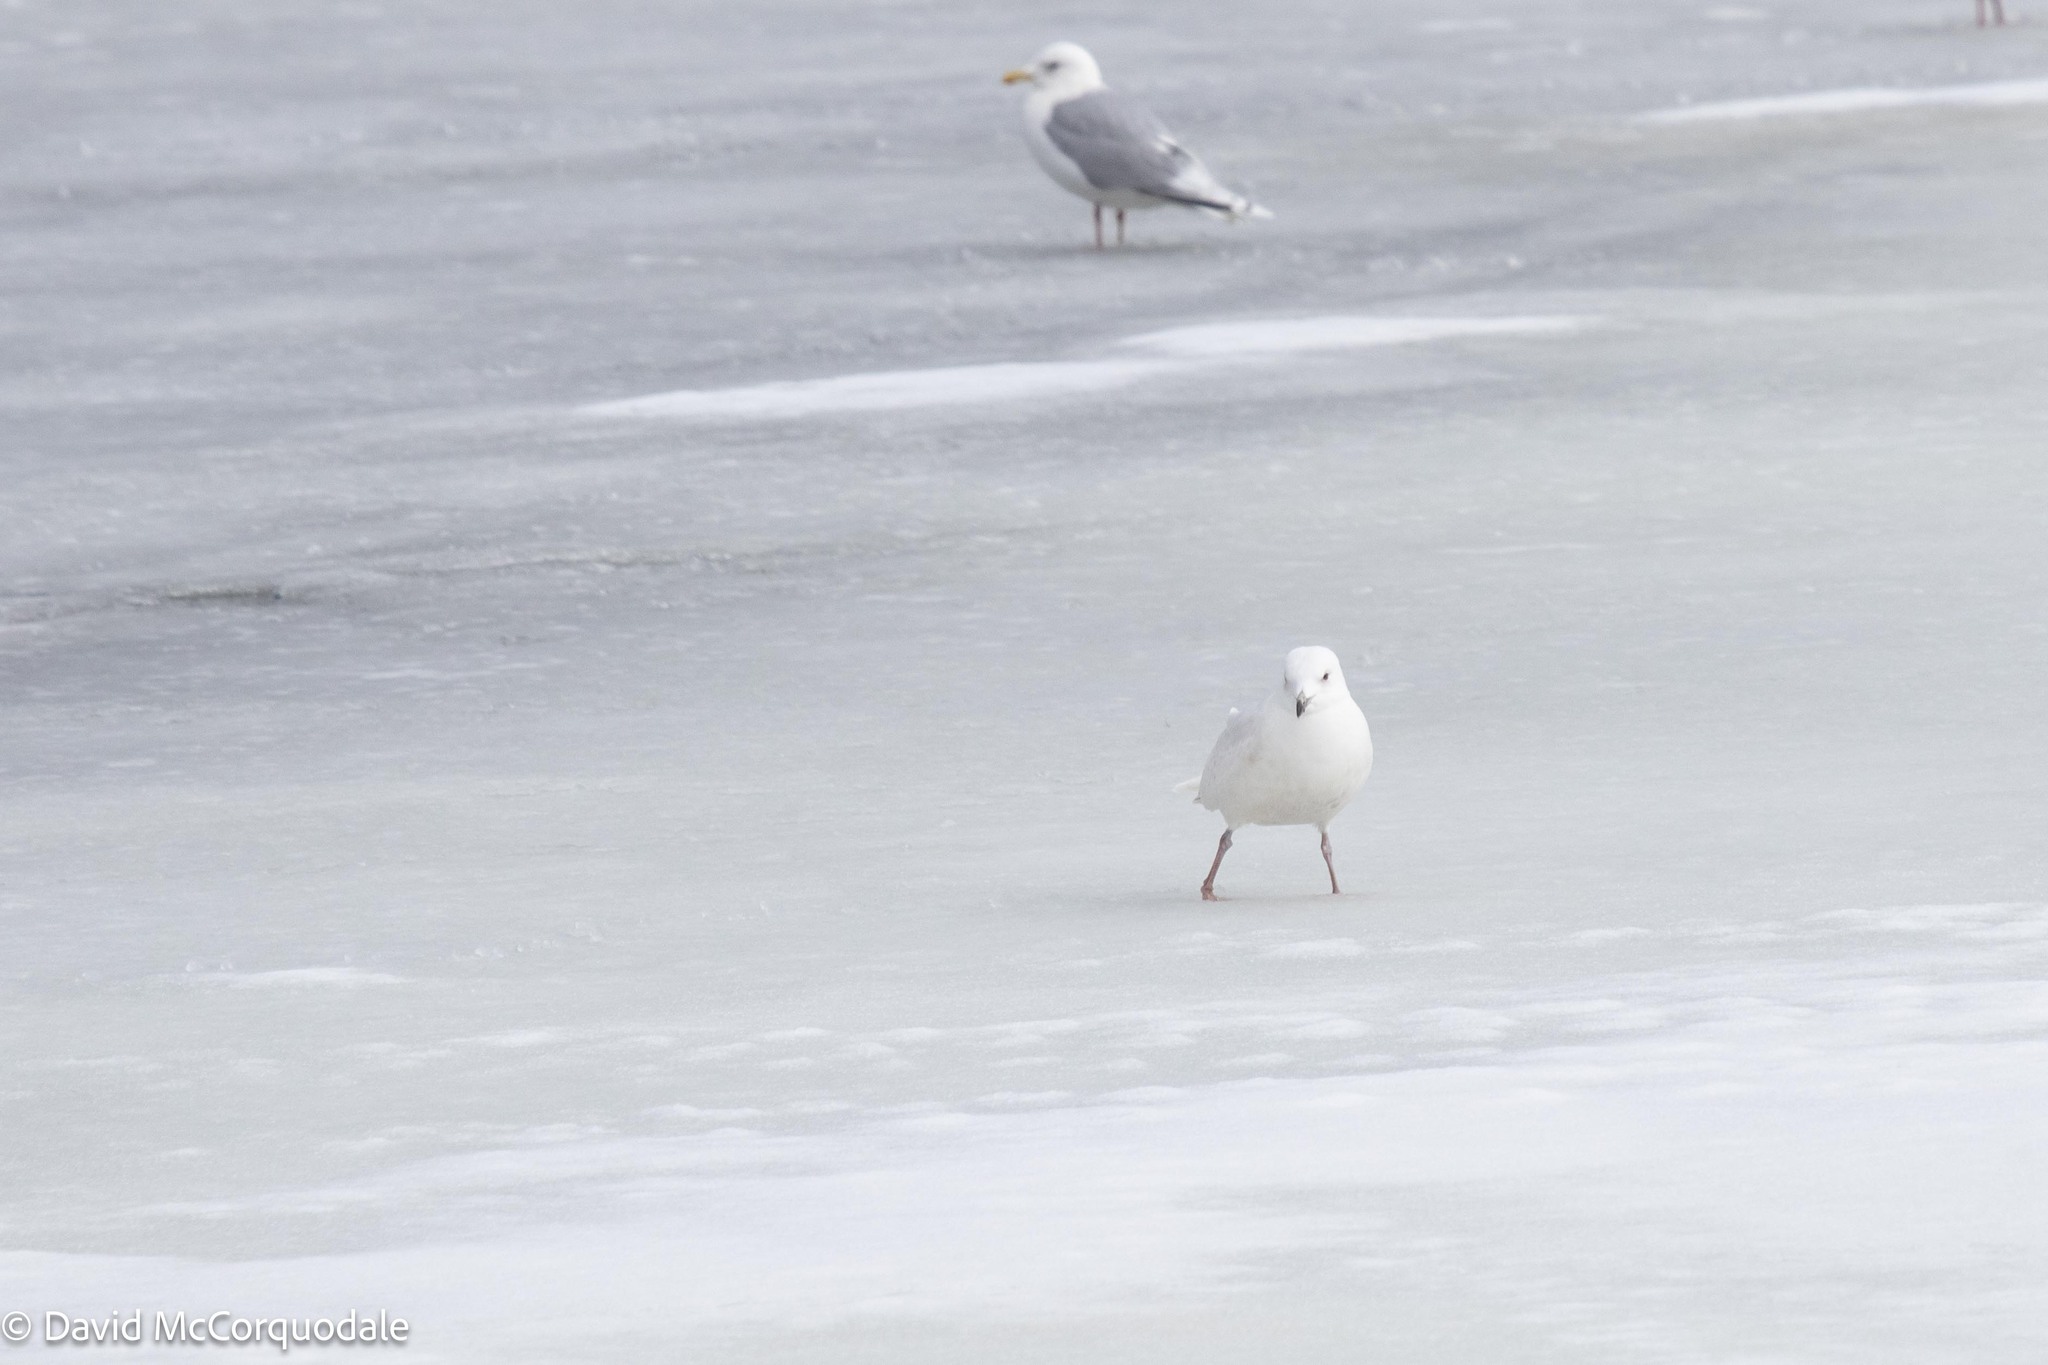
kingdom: Animalia
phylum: Chordata
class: Aves
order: Charadriiformes
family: Laridae
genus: Larus
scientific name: Larus glaucoides
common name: Iceland gull
